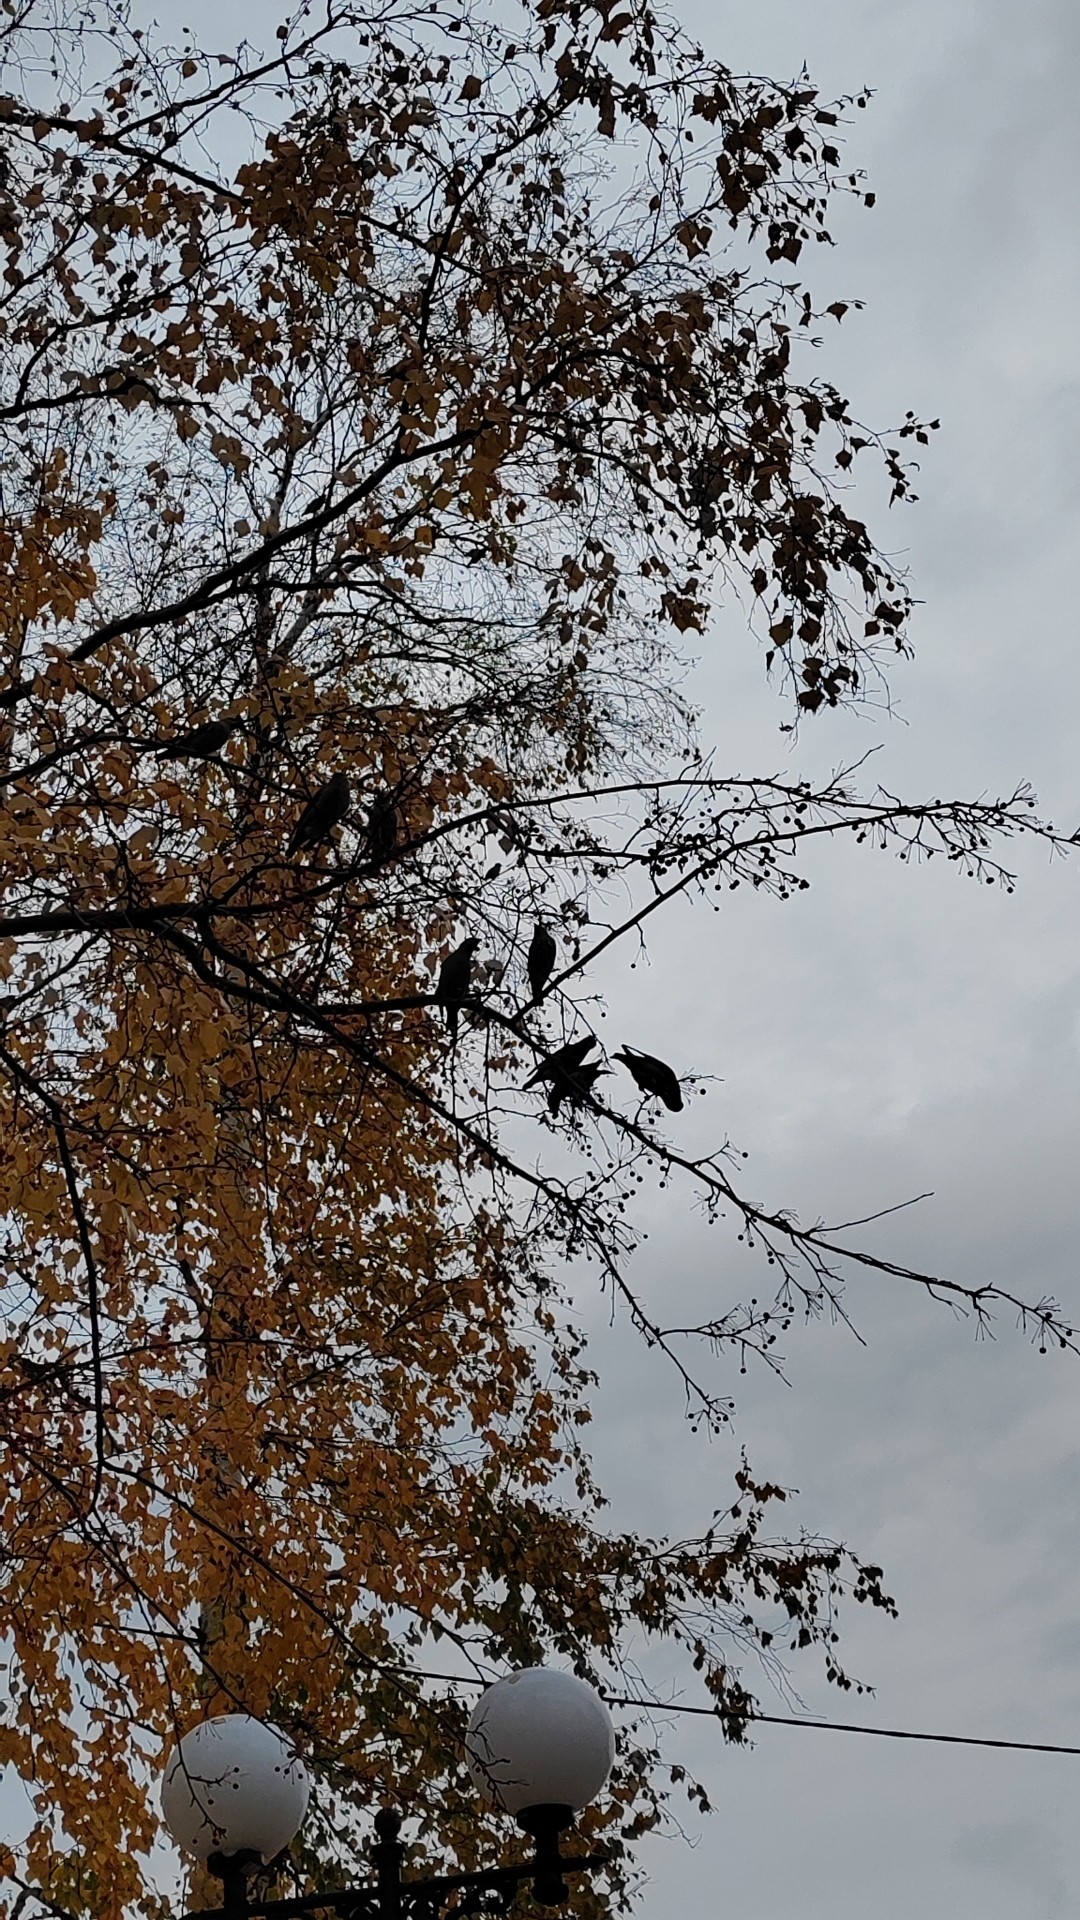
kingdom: Animalia
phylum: Chordata
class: Aves
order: Passeriformes
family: Bombycillidae
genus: Bombycilla
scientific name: Bombycilla garrulus
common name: Bohemian waxwing
